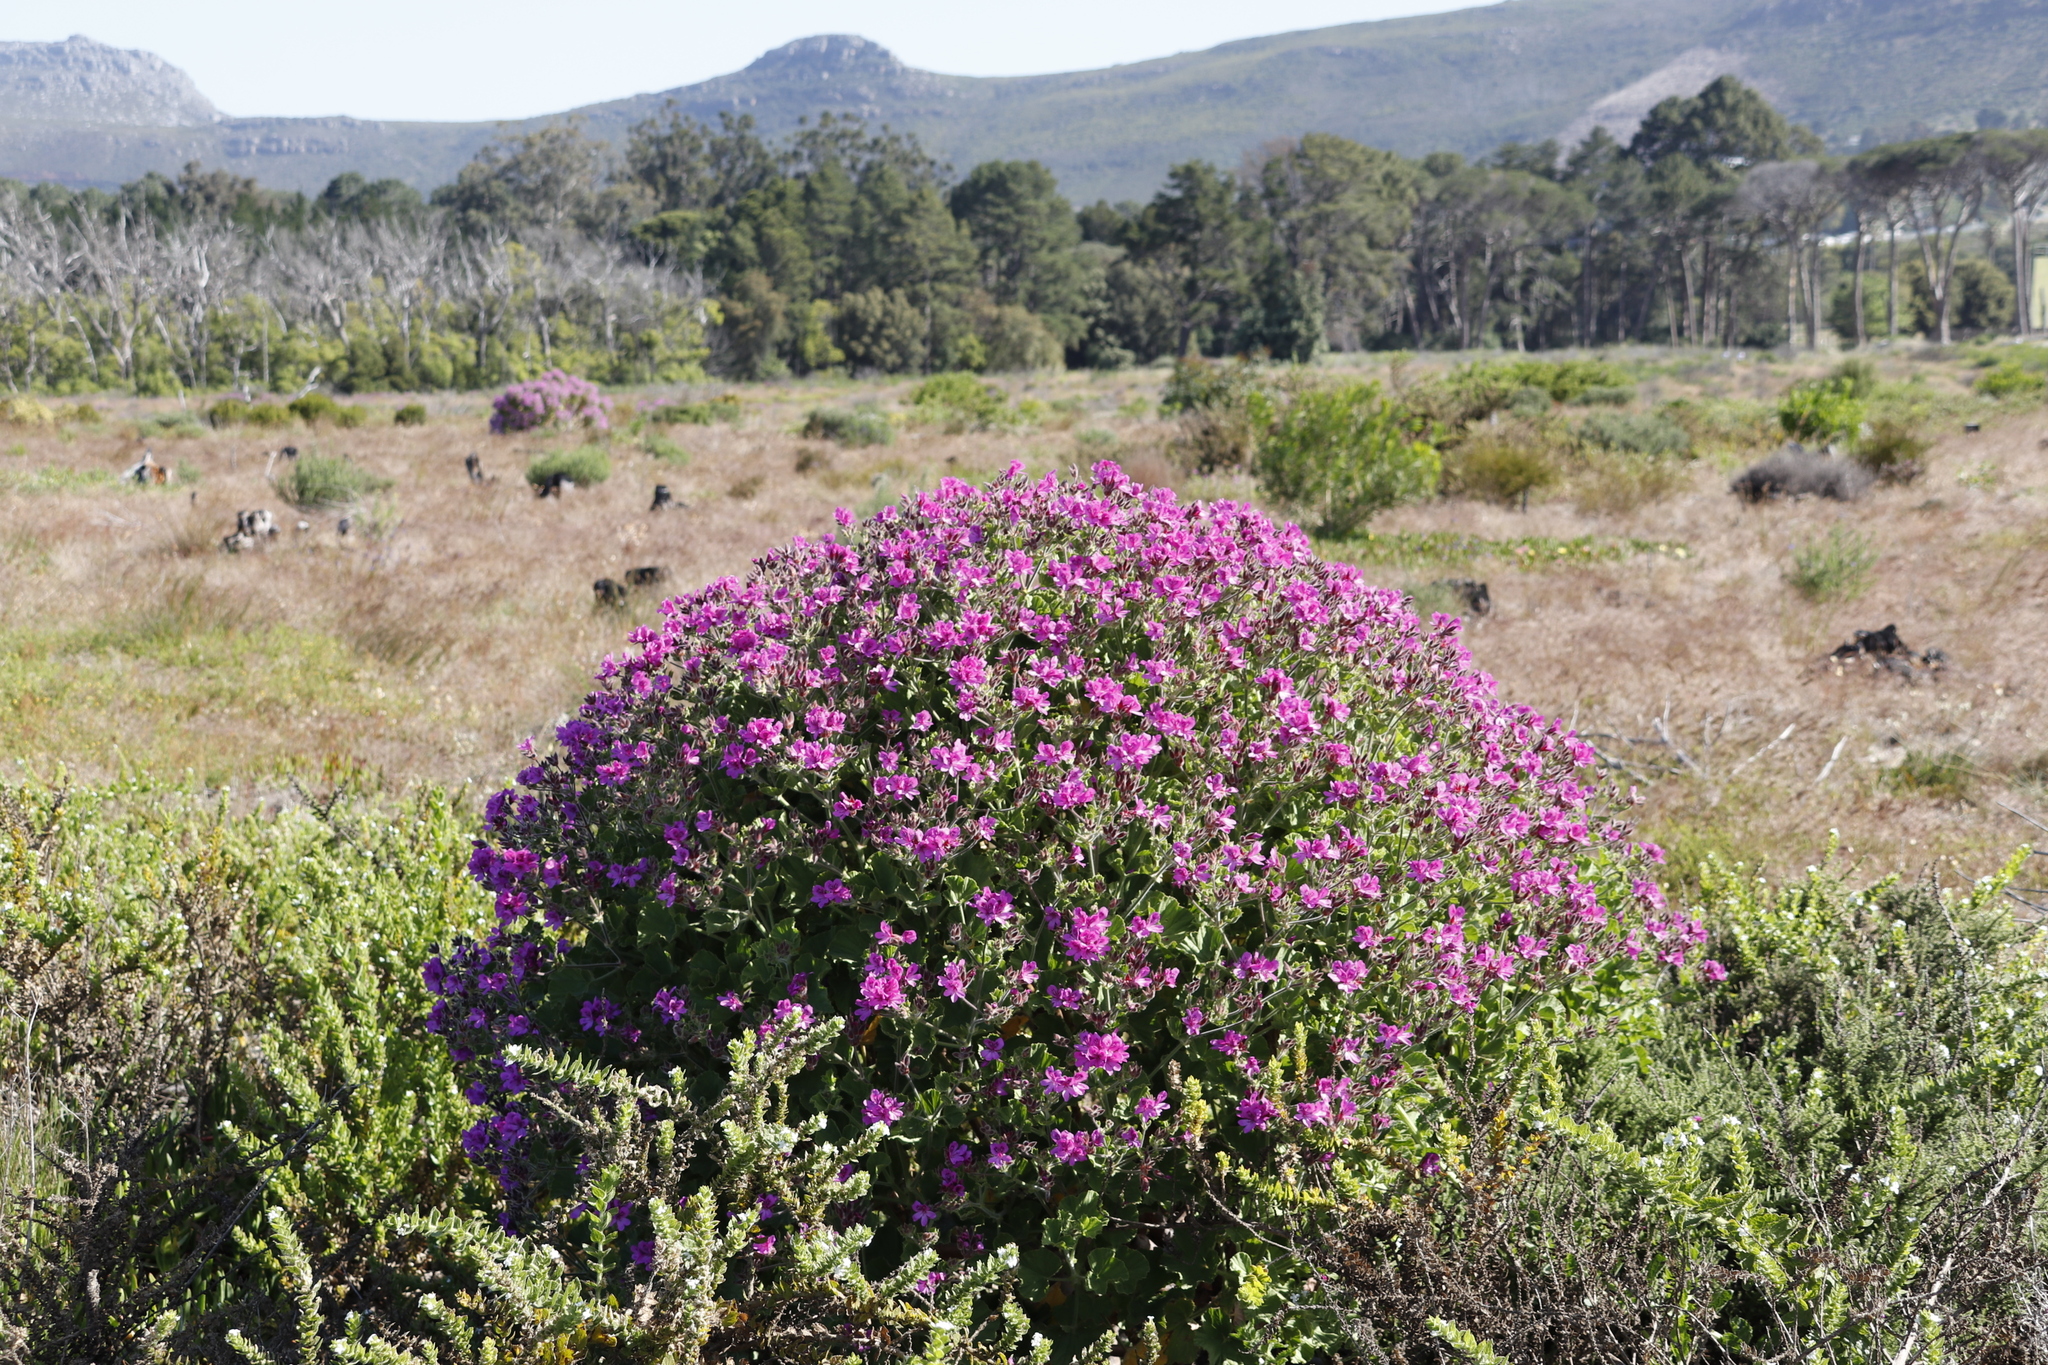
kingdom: Plantae
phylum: Tracheophyta
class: Magnoliopsida
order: Geraniales
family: Geraniaceae
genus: Pelargonium
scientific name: Pelargonium cucullatum
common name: Tree pelargonium
